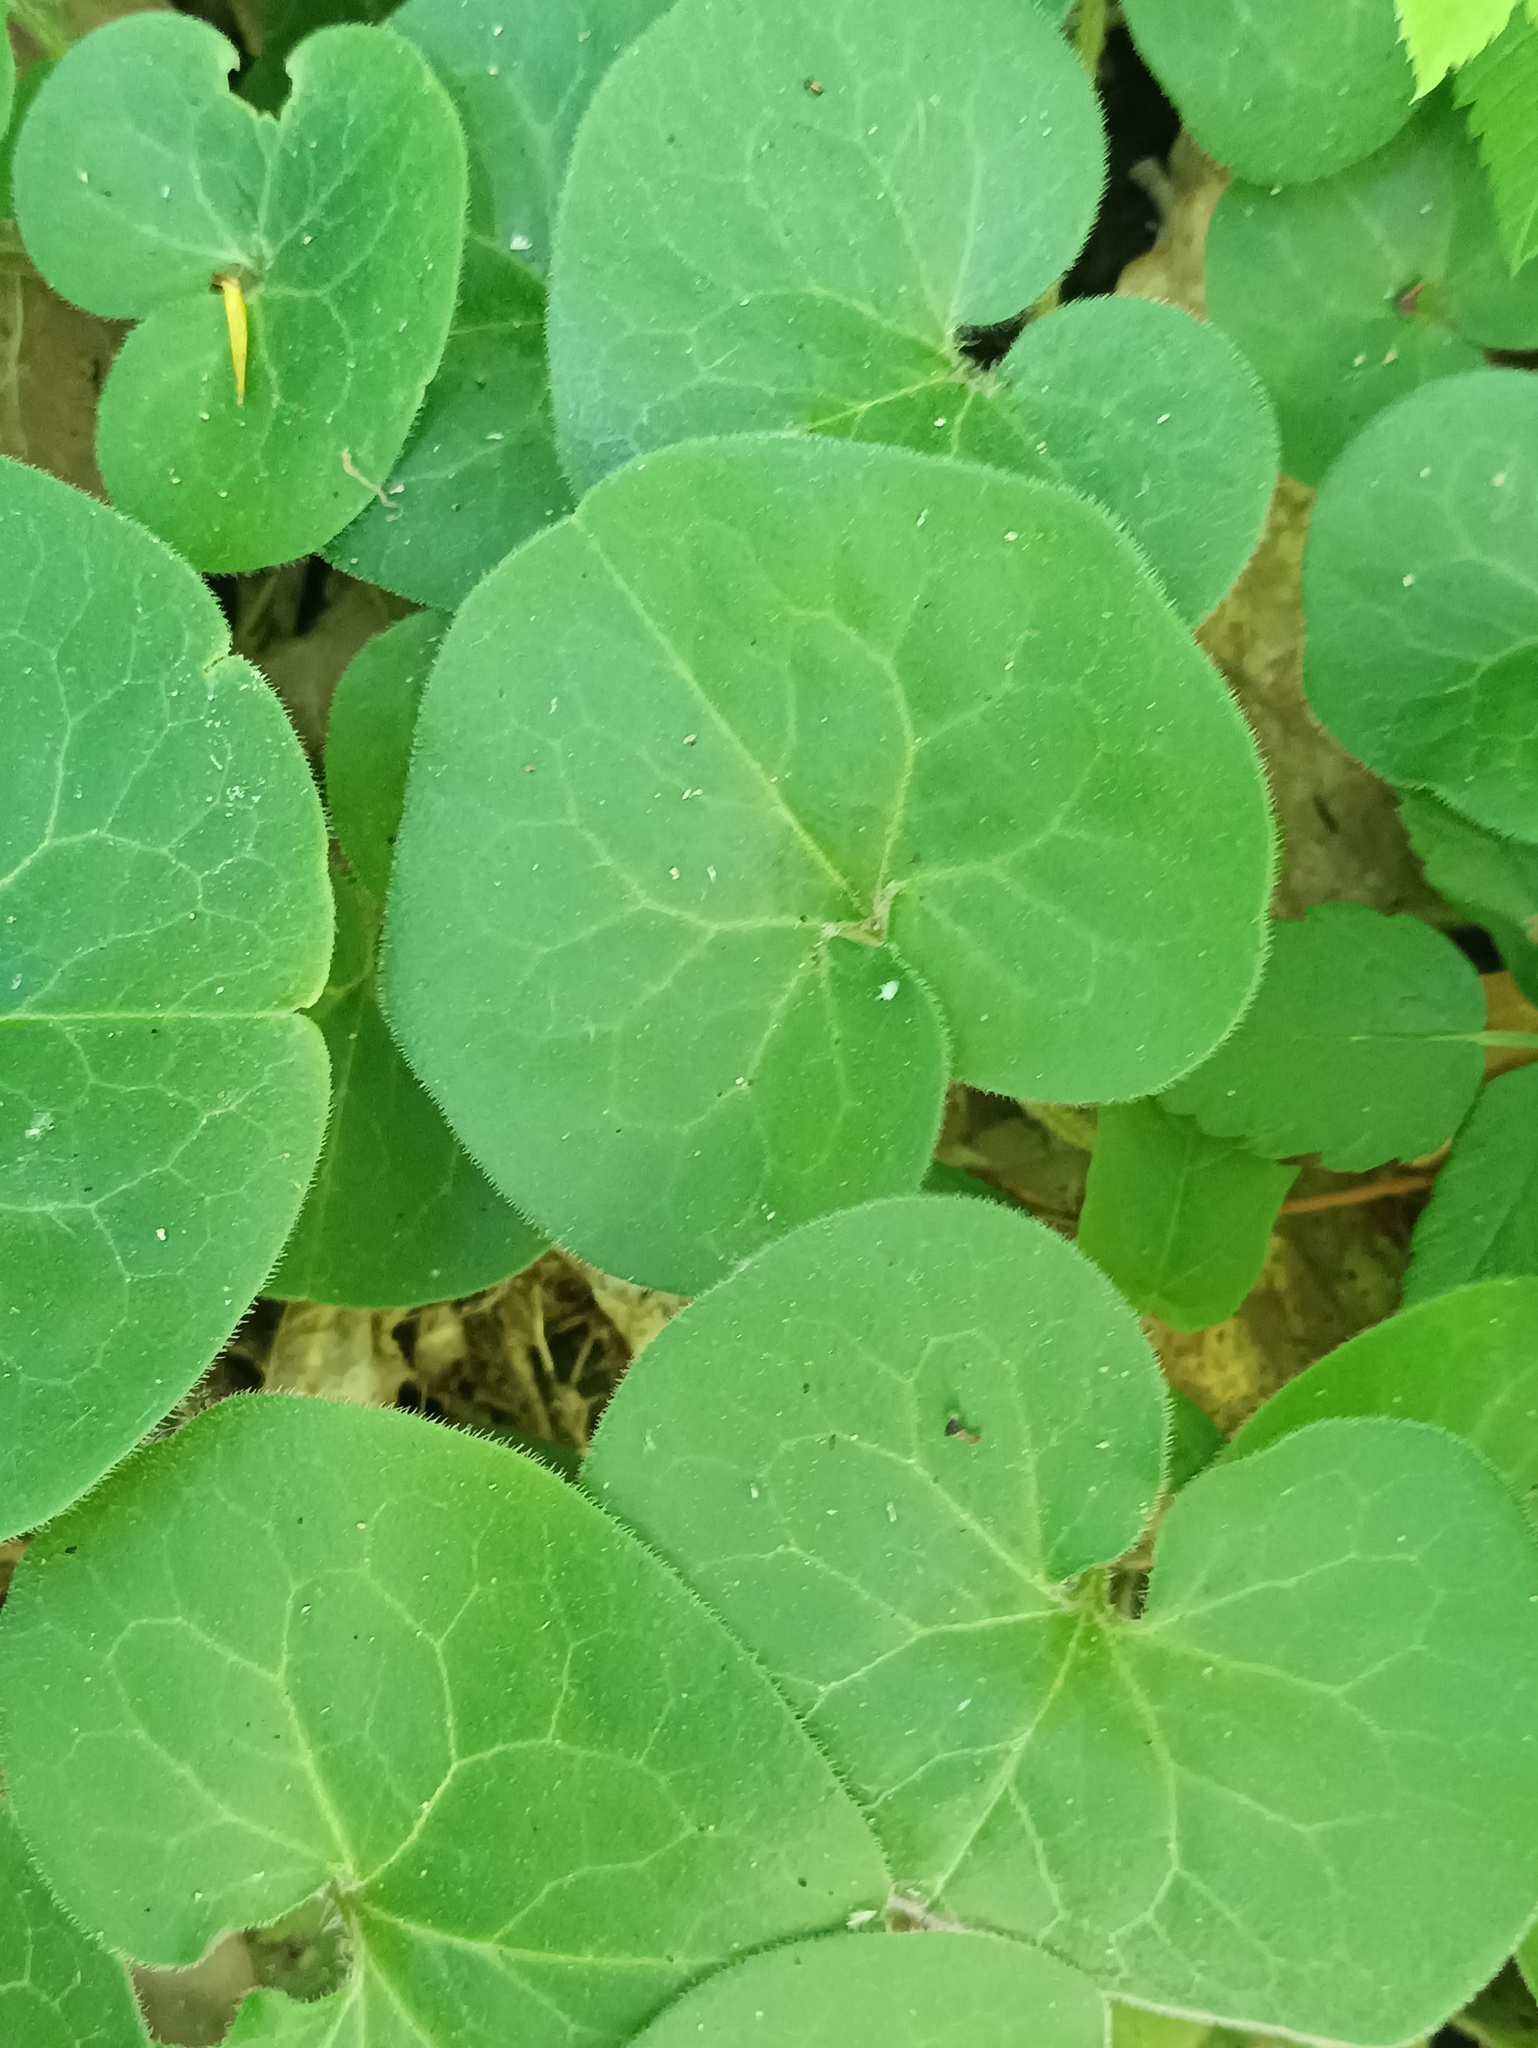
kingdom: Plantae
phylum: Tracheophyta
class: Magnoliopsida
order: Piperales
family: Aristolochiaceae
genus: Asarum
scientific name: Asarum europaeum
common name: Asarabacca
